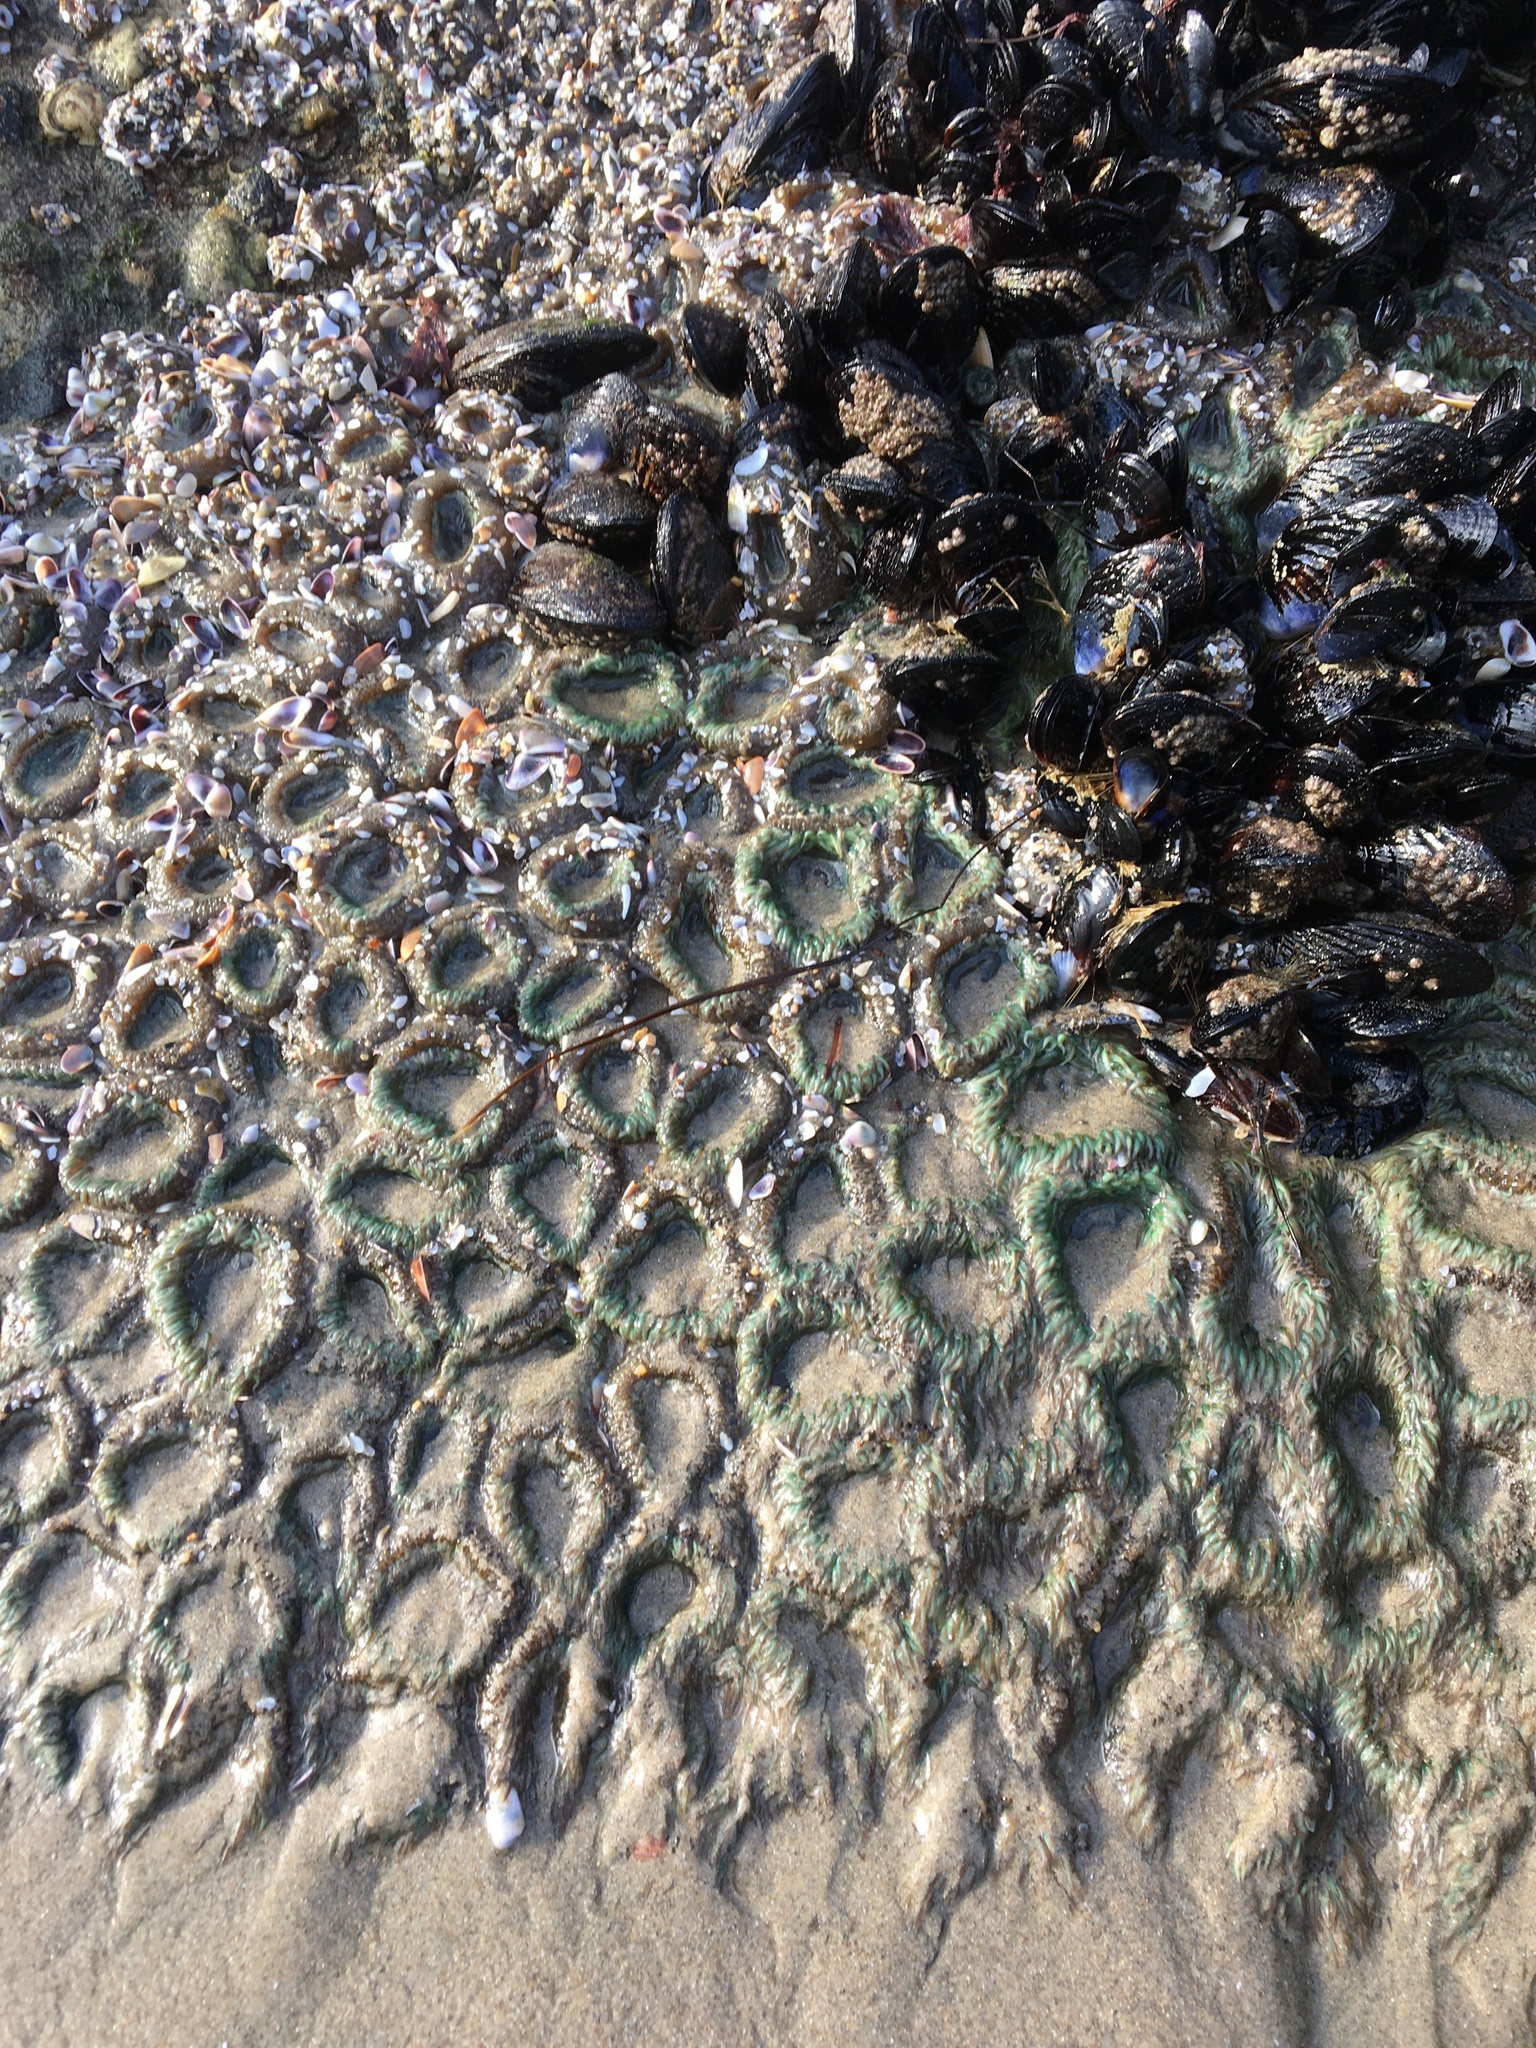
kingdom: Animalia
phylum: Cnidaria
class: Anthozoa
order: Actiniaria
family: Actiniidae
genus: Anthopleura
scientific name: Anthopleura elegantissima
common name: Clonal anemone
